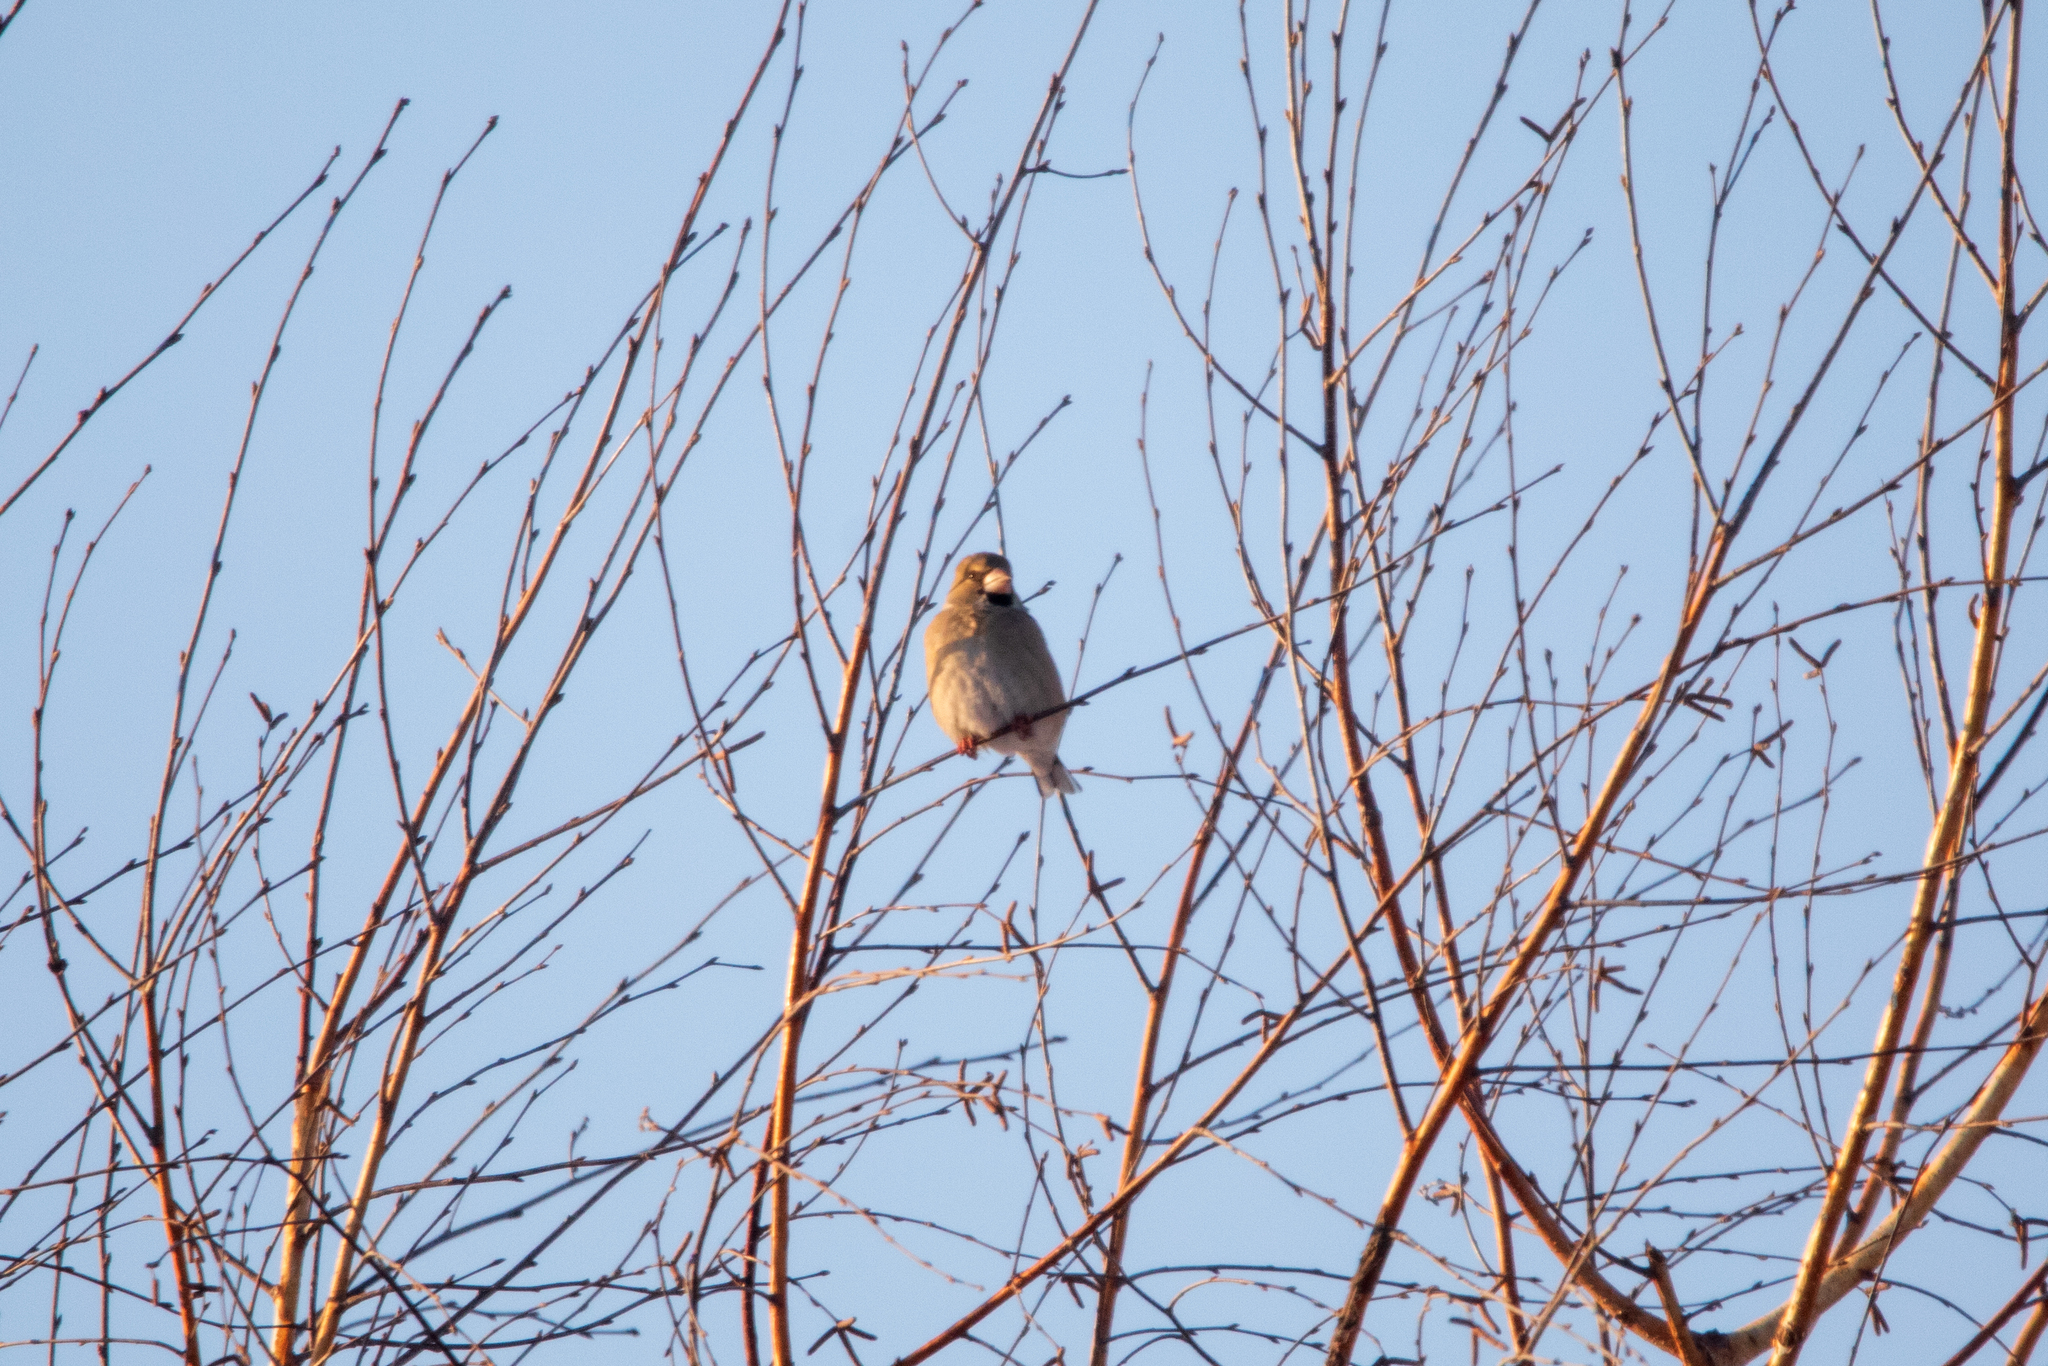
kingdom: Animalia
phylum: Chordata
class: Aves
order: Passeriformes
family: Fringillidae
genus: Coccothraustes
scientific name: Coccothraustes coccothraustes
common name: Hawfinch
